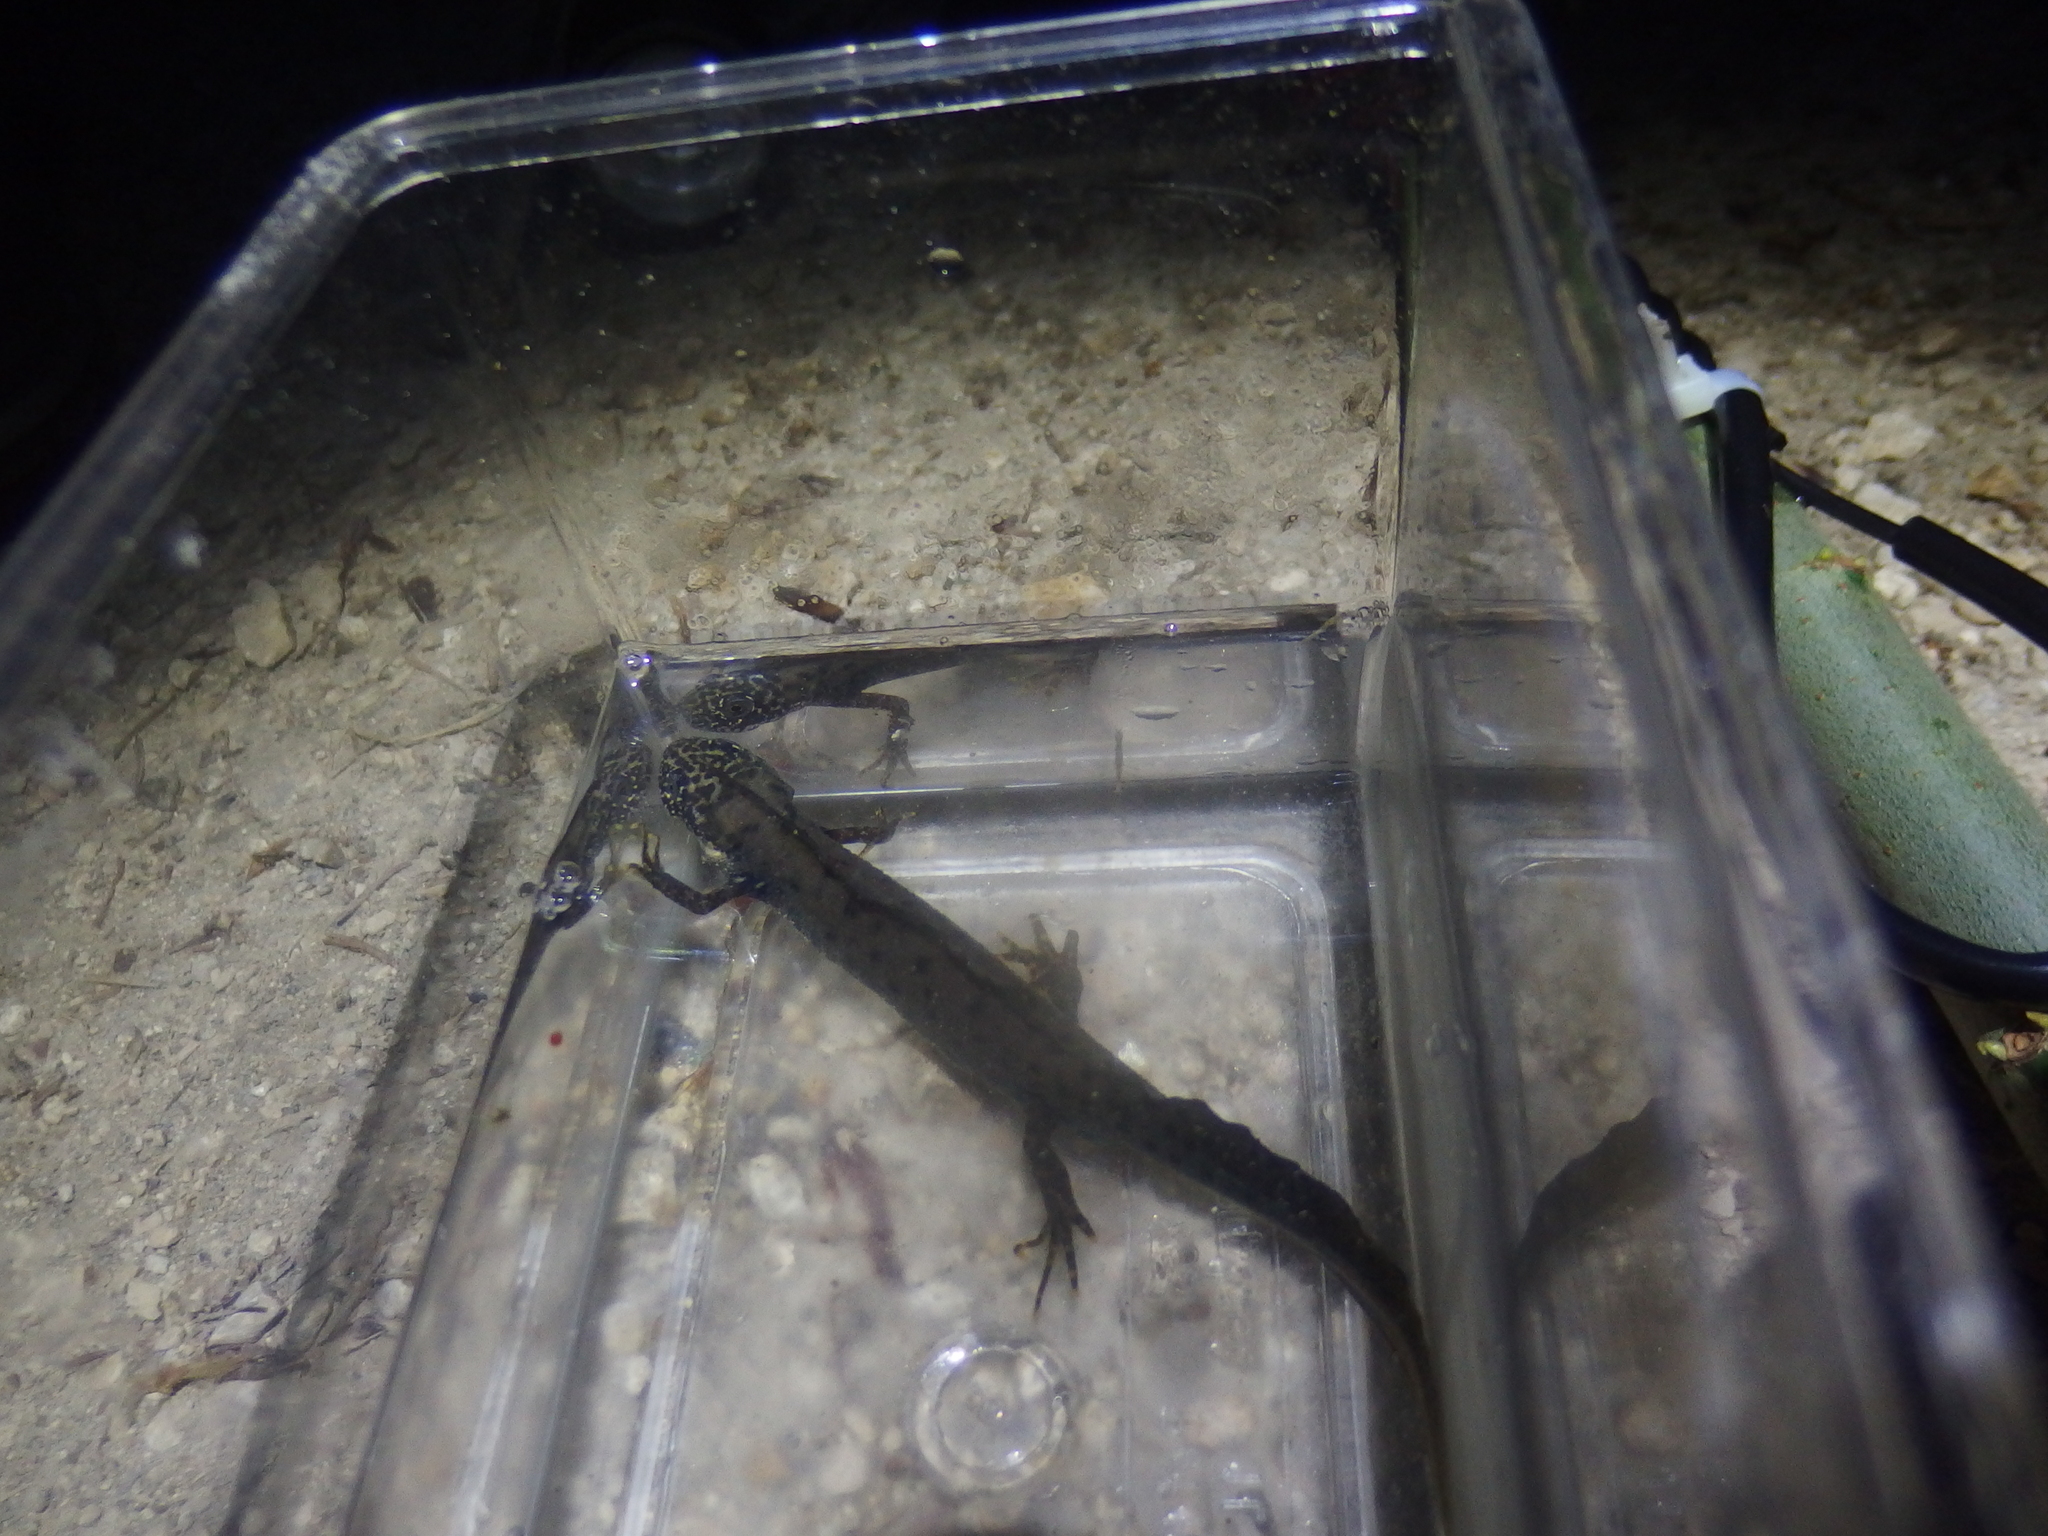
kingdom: Animalia
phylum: Chordata
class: Amphibia
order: Caudata
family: Salamandridae
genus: Triturus
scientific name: Triturus cristatus
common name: Crested newt
